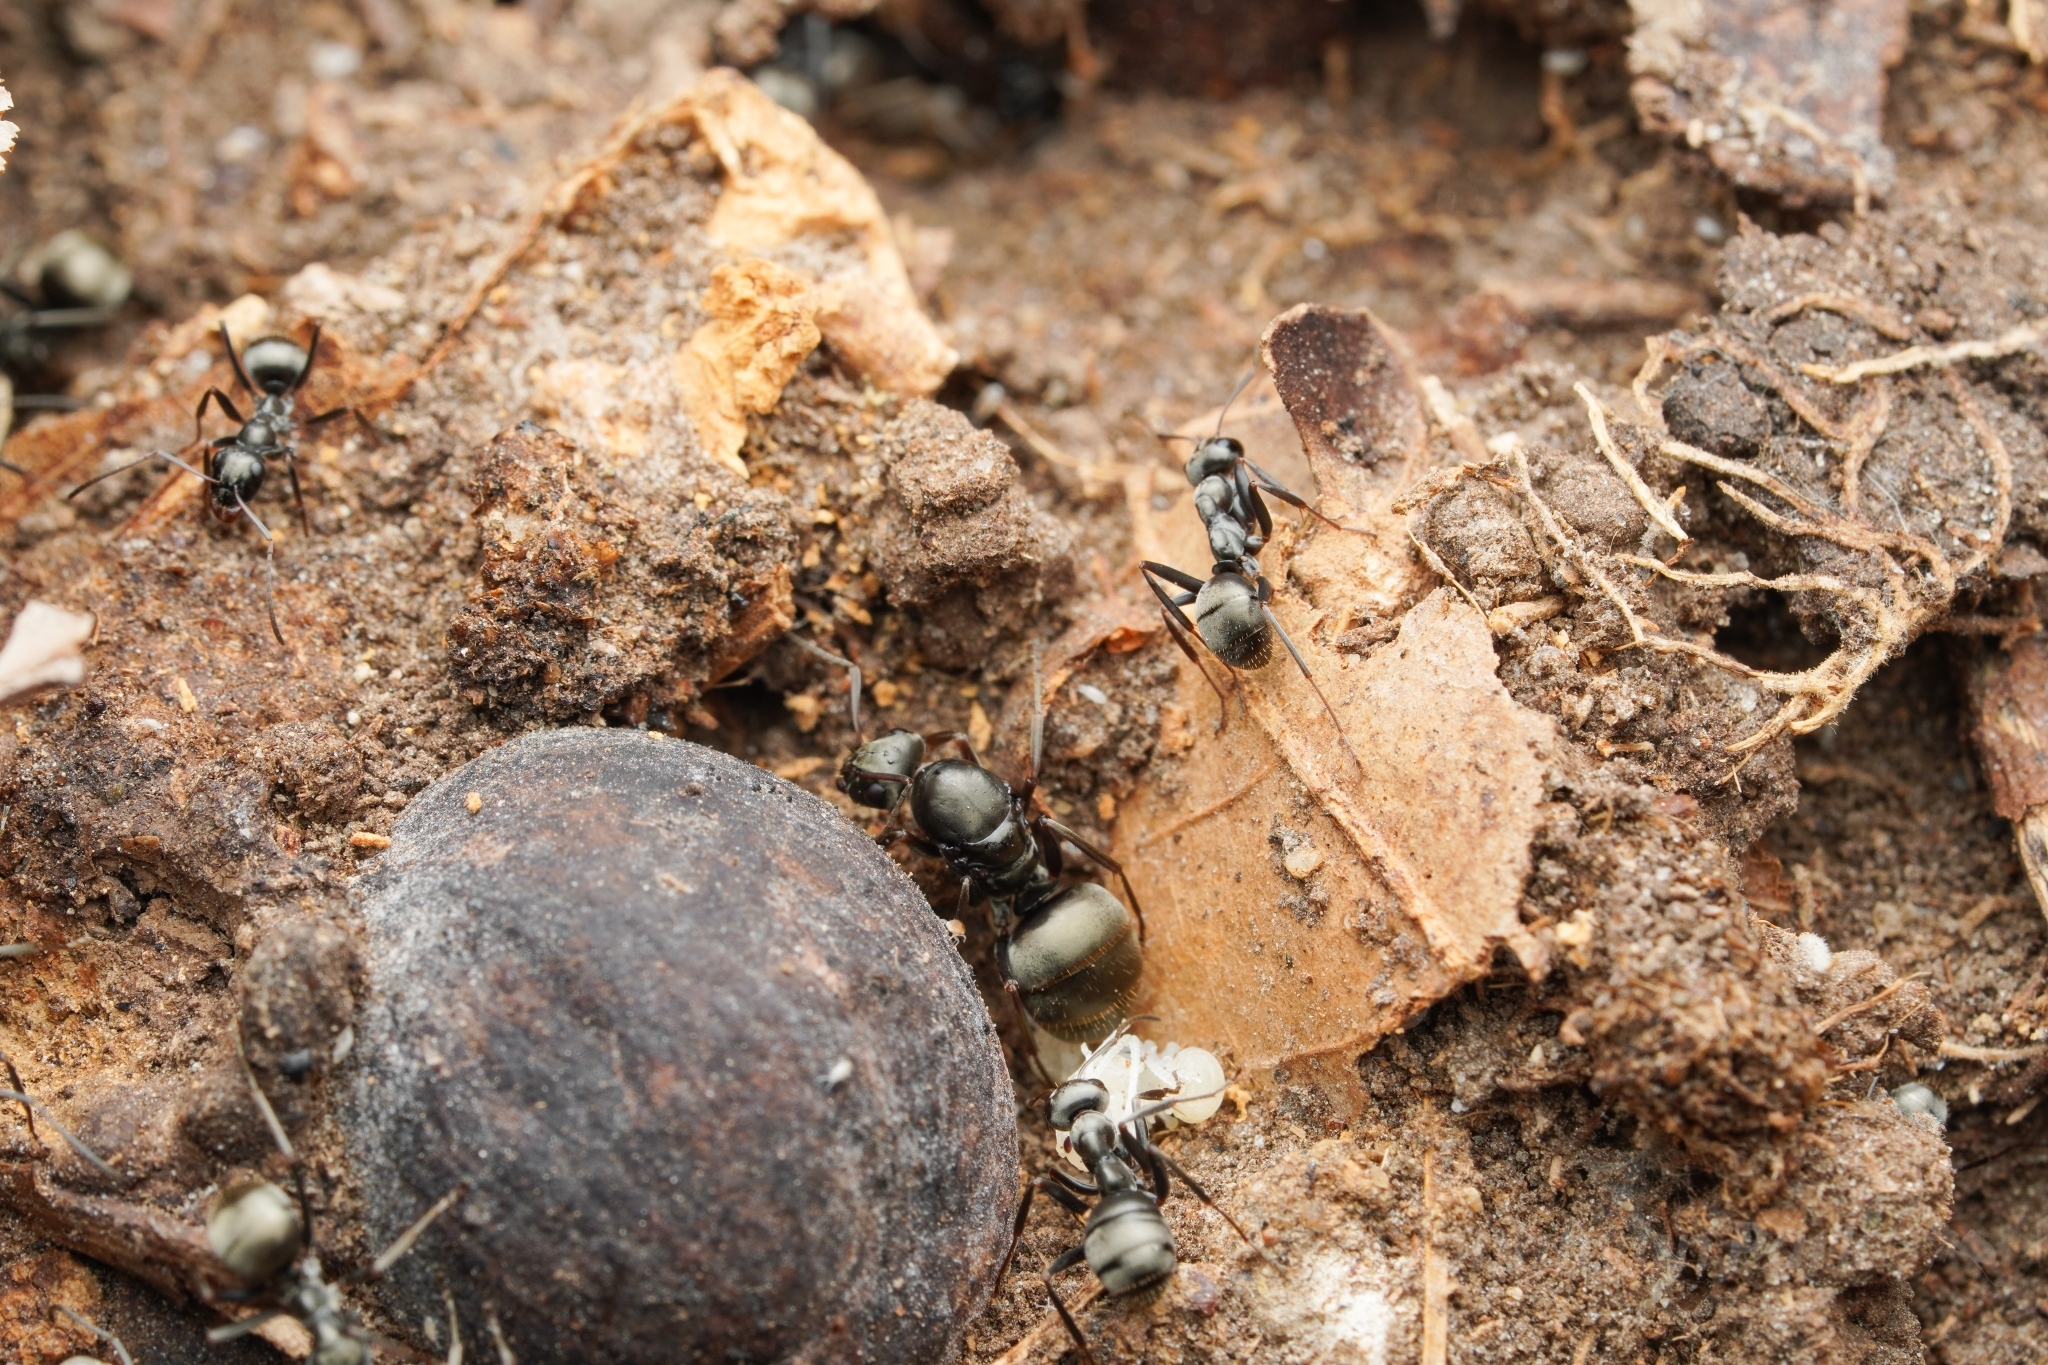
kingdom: Animalia
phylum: Arthropoda
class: Insecta
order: Hymenoptera
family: Formicidae
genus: Formica
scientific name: Formica subsericea
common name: Silky field ant
